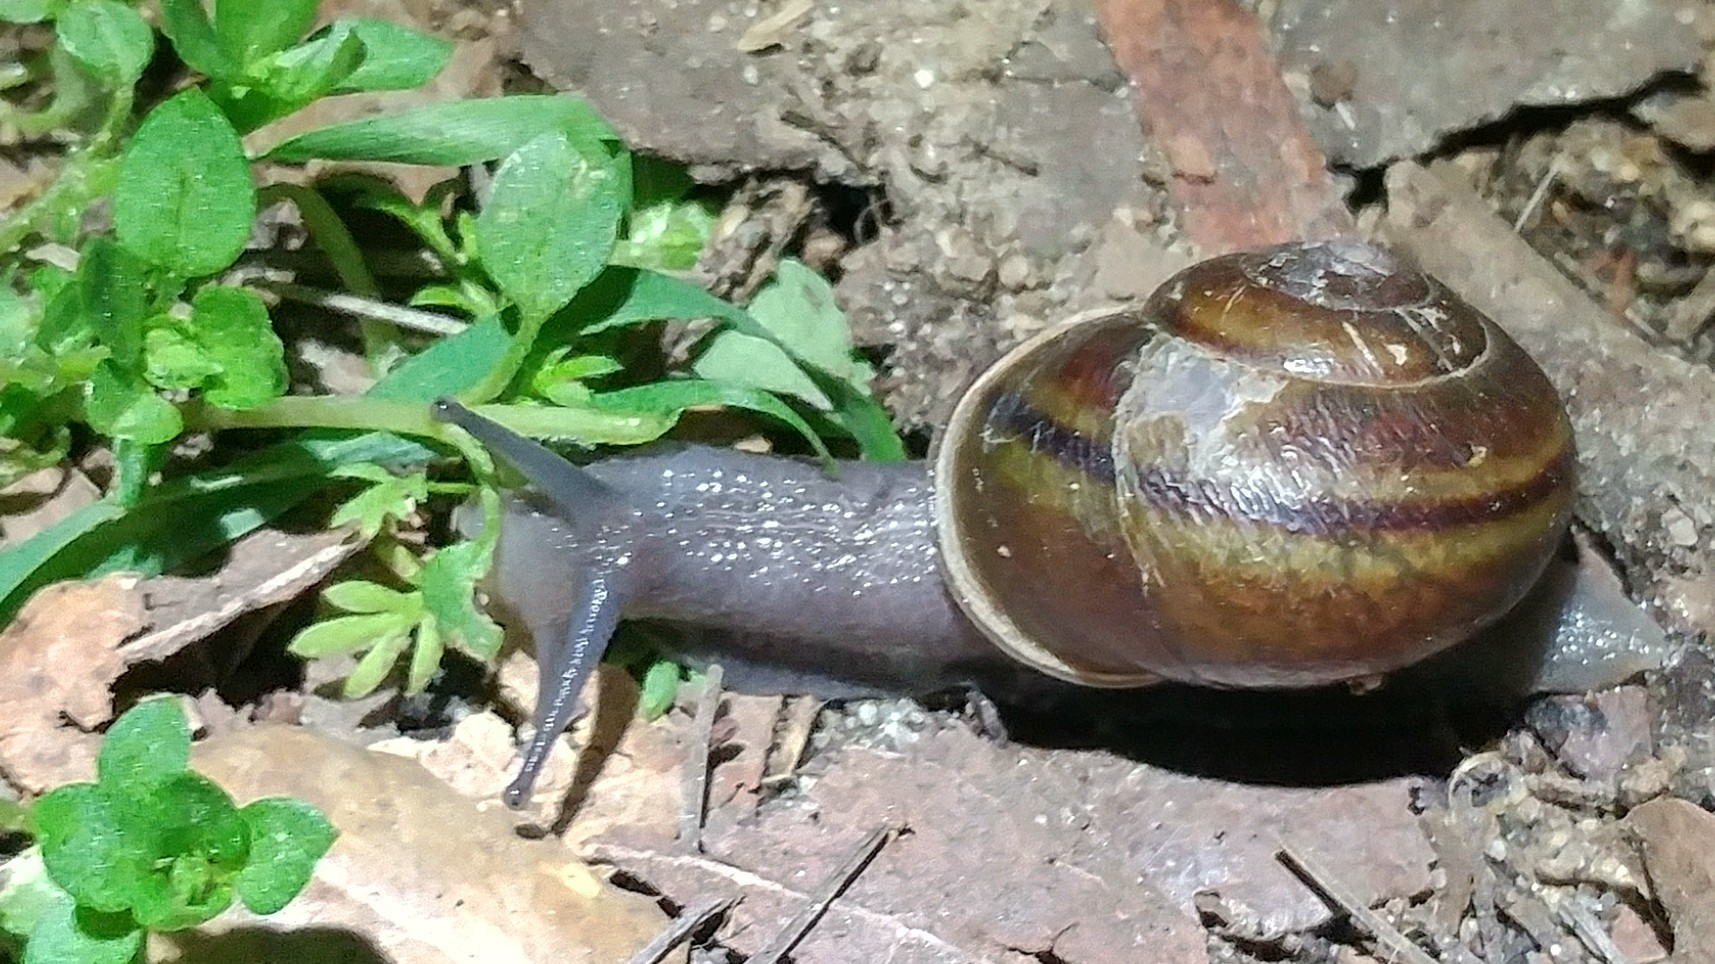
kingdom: Animalia
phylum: Mollusca
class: Gastropoda
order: Stylommatophora
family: Xanthonychidae
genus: Helminthoglypta
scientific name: Helminthoglypta tudiculata
